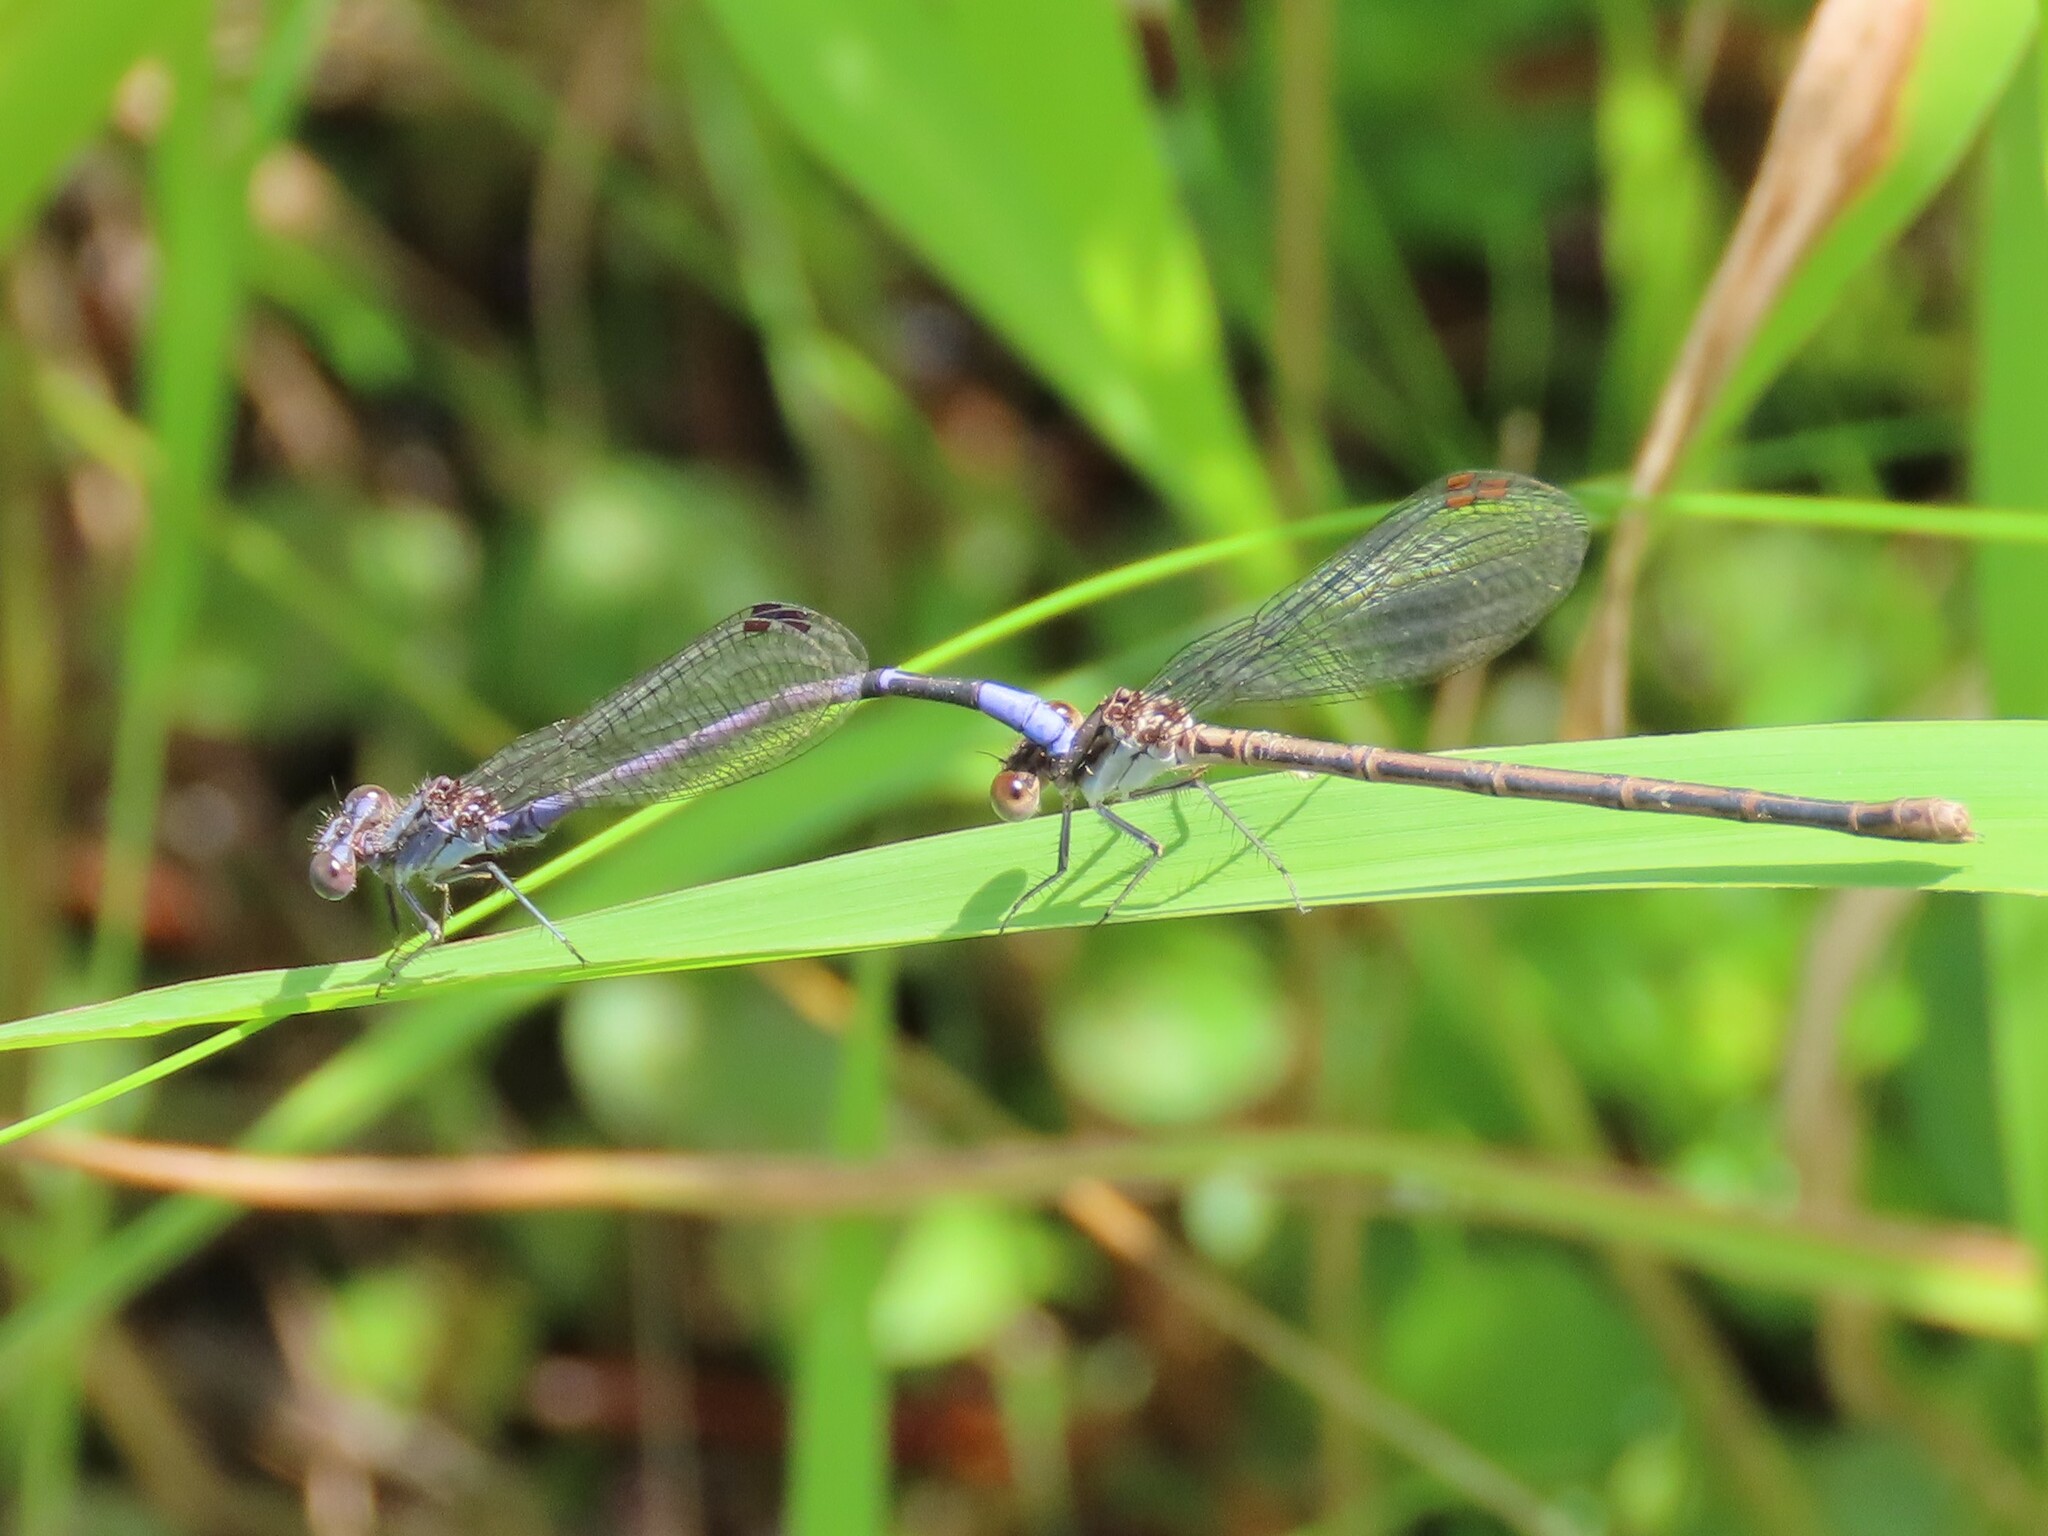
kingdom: Animalia
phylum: Arthropoda
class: Insecta
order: Odonata
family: Coenagrionidae
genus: Argia
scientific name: Argia fumipennis
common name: Variable dancer
